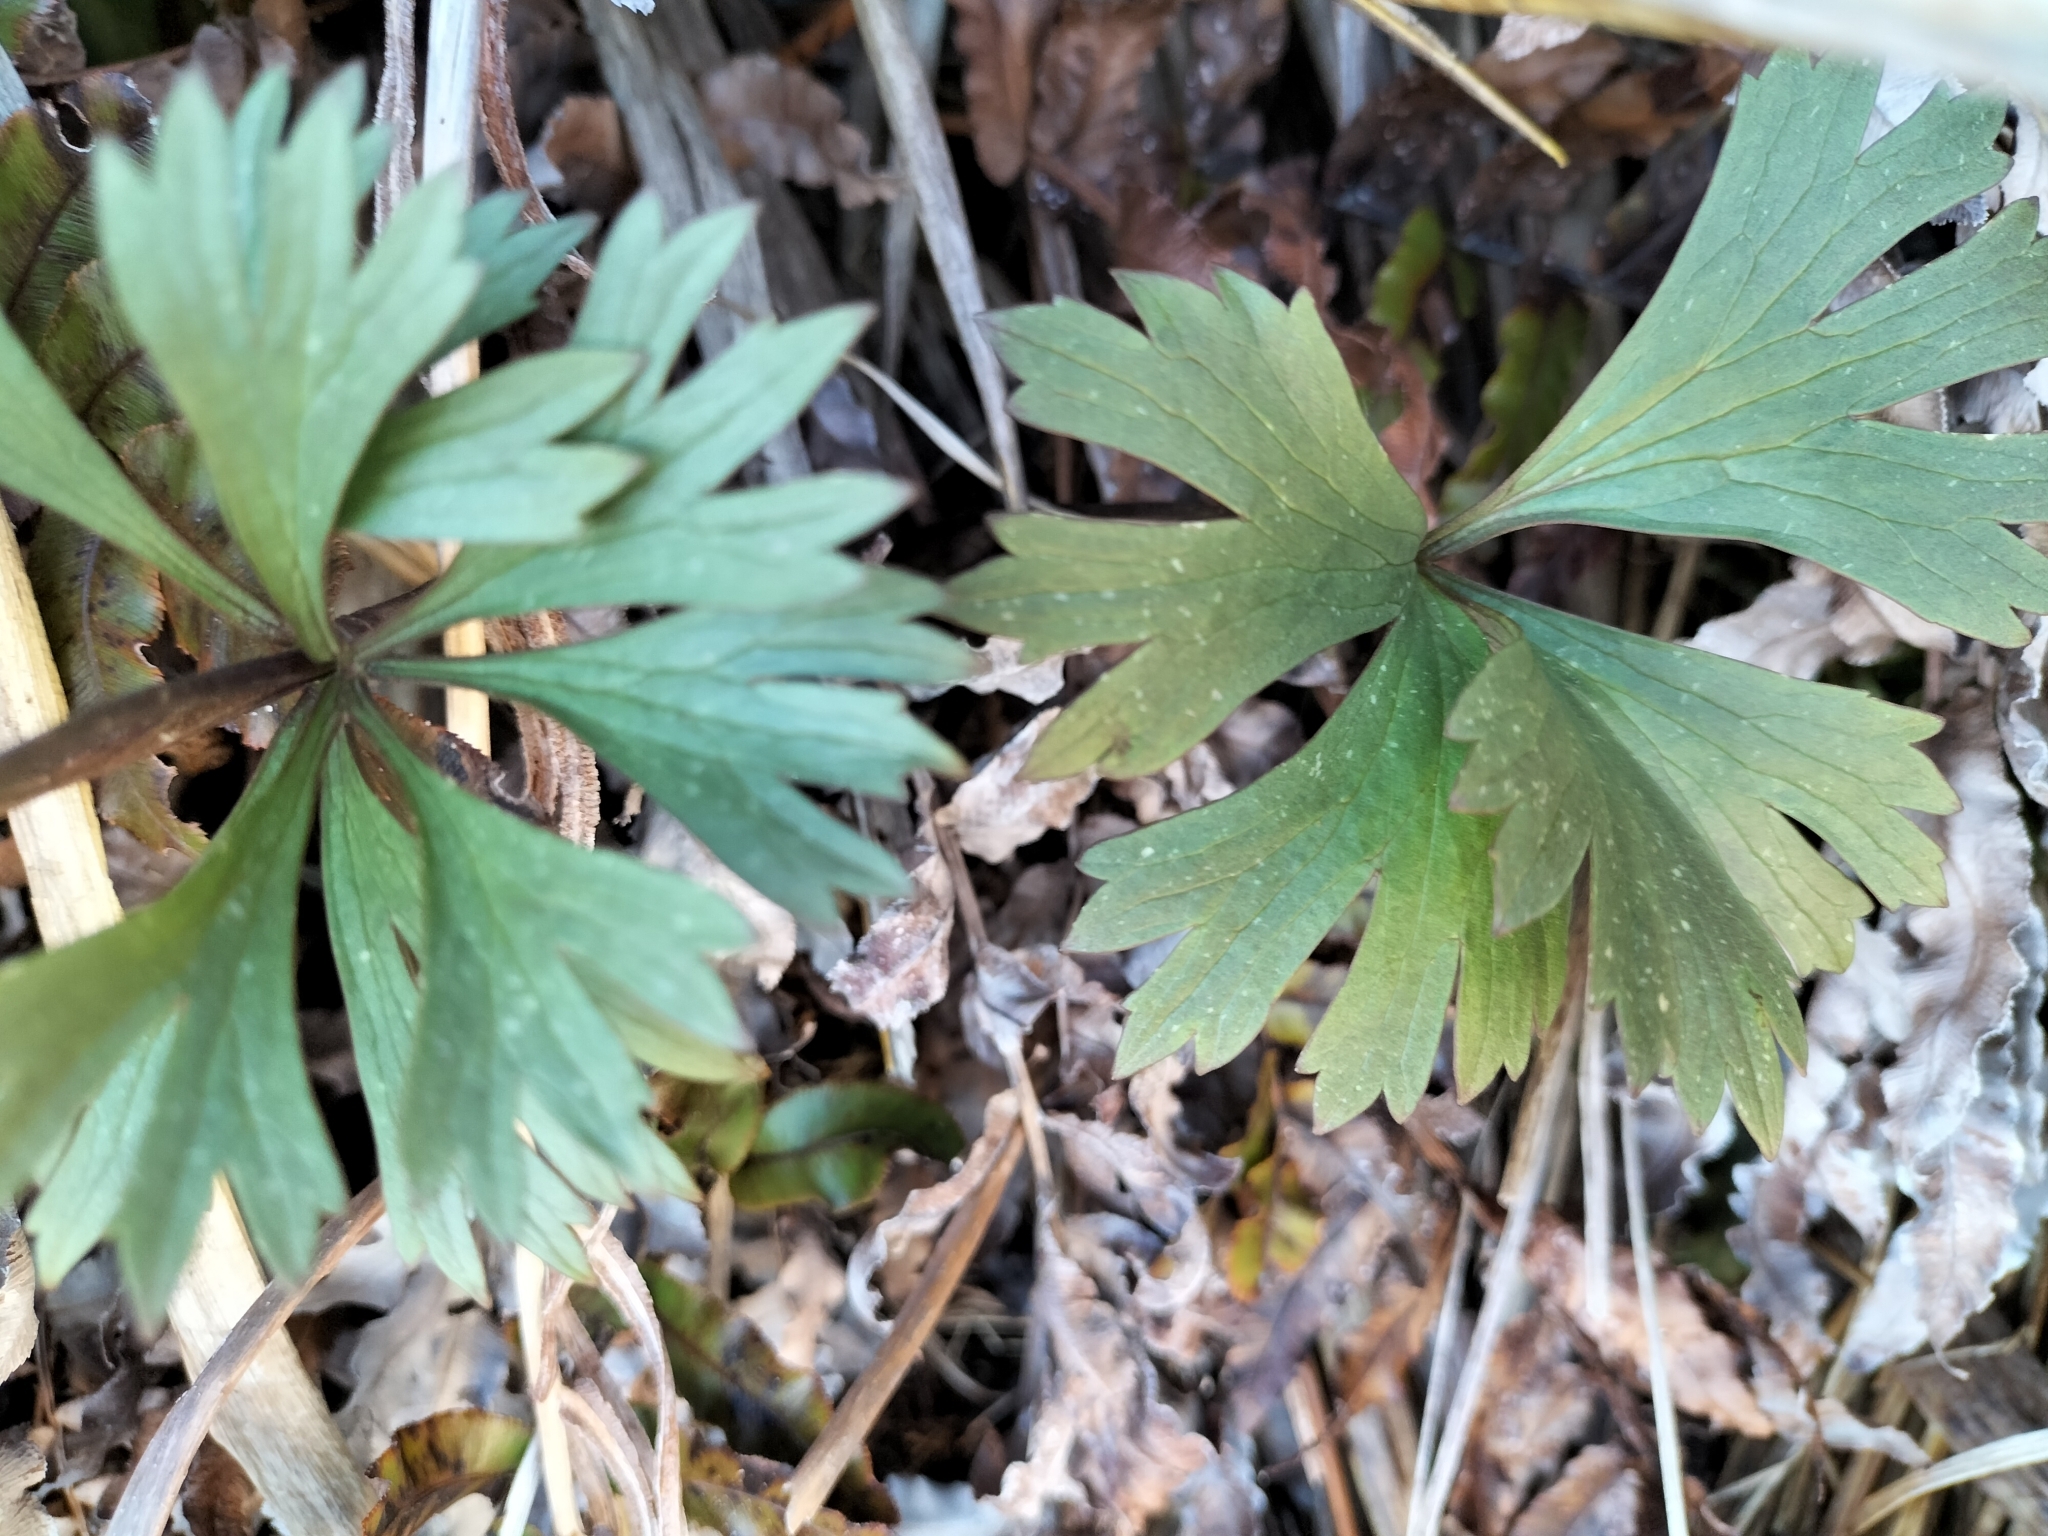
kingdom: Plantae
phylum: Tracheophyta
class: Magnoliopsida
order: Ranunculales
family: Ranunculaceae
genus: Ranunculus
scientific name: Ranunculus verticillatus
